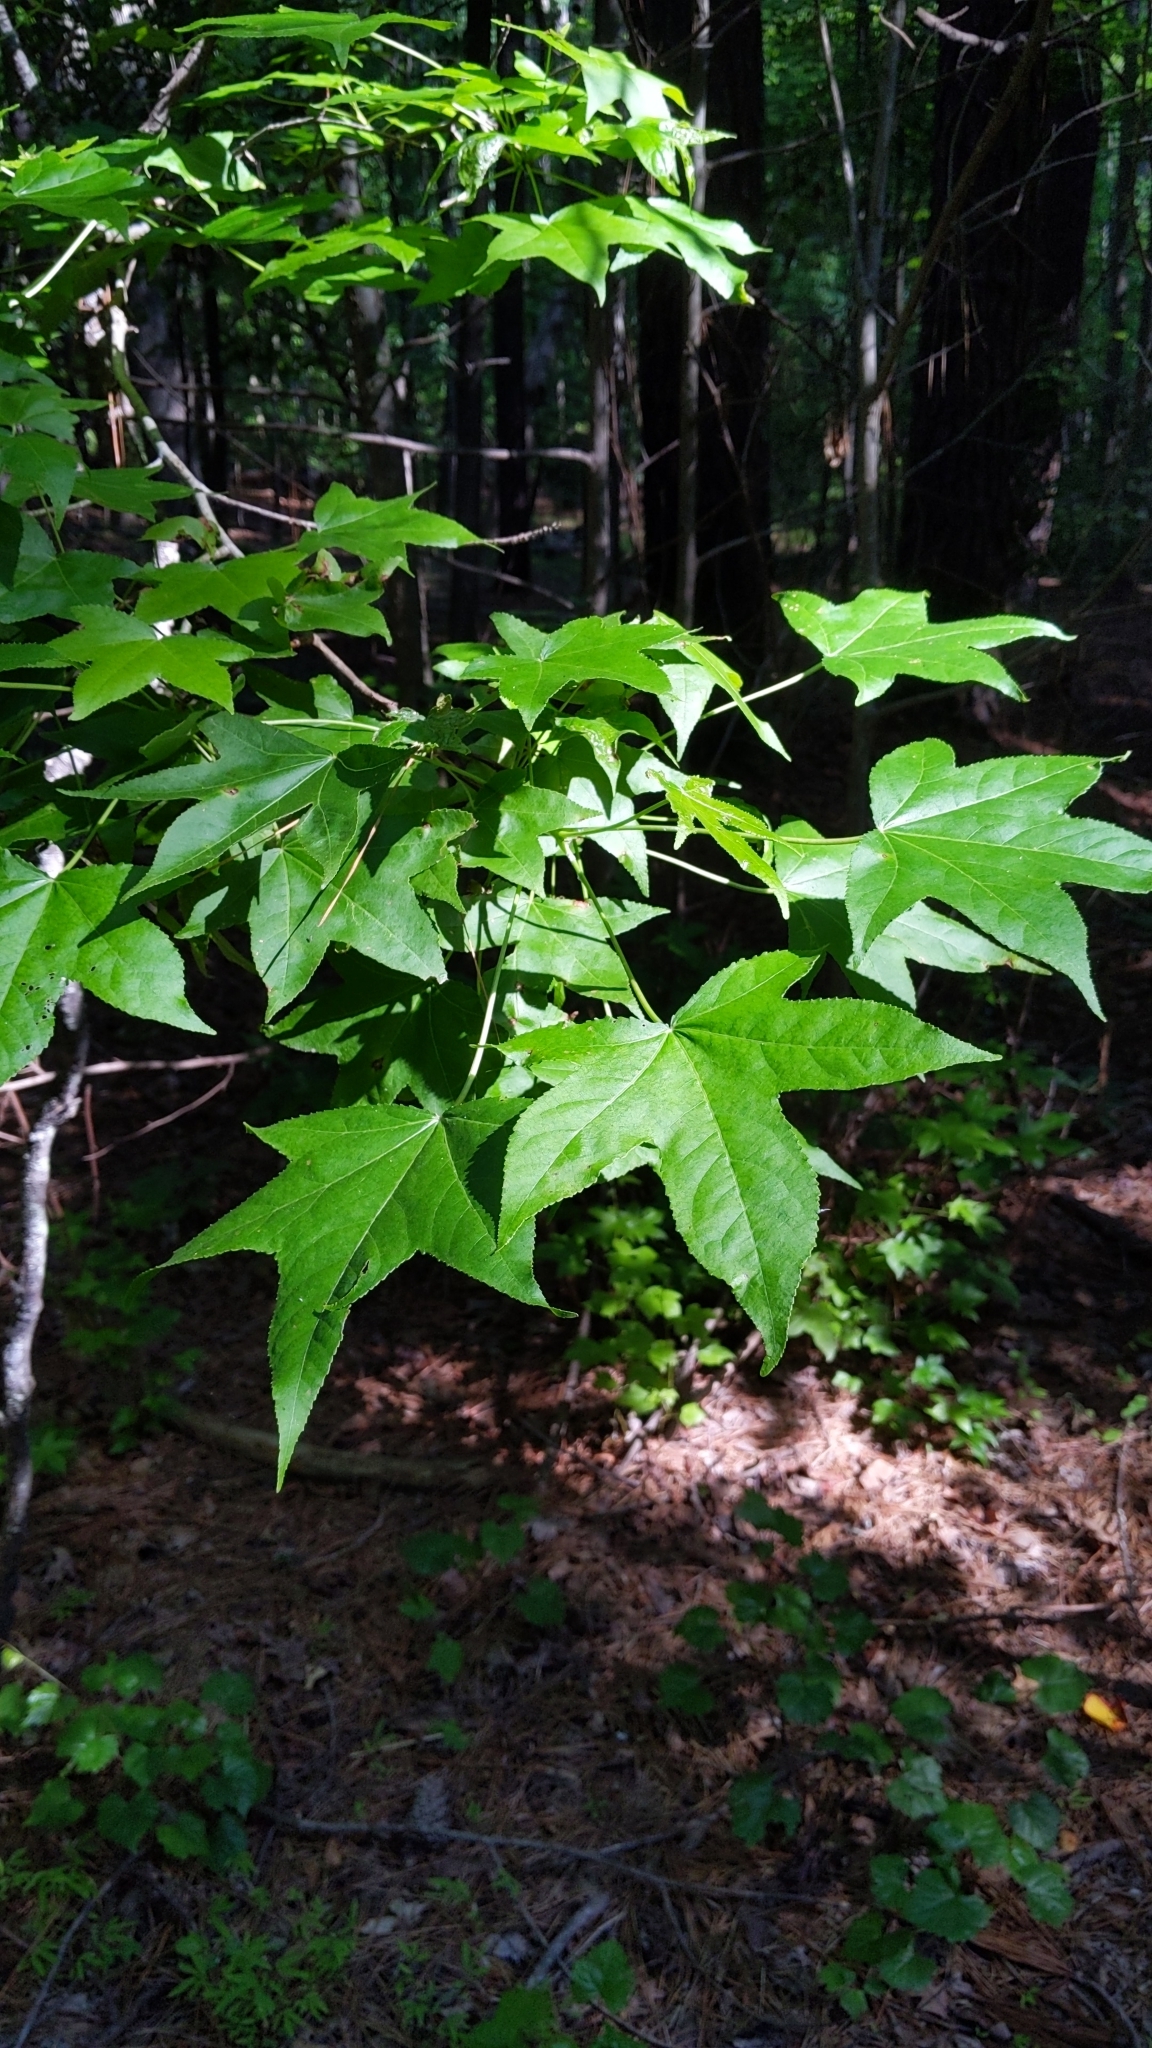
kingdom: Plantae
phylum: Tracheophyta
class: Magnoliopsida
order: Saxifragales
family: Altingiaceae
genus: Liquidambar
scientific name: Liquidambar styraciflua
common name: Sweet gum
